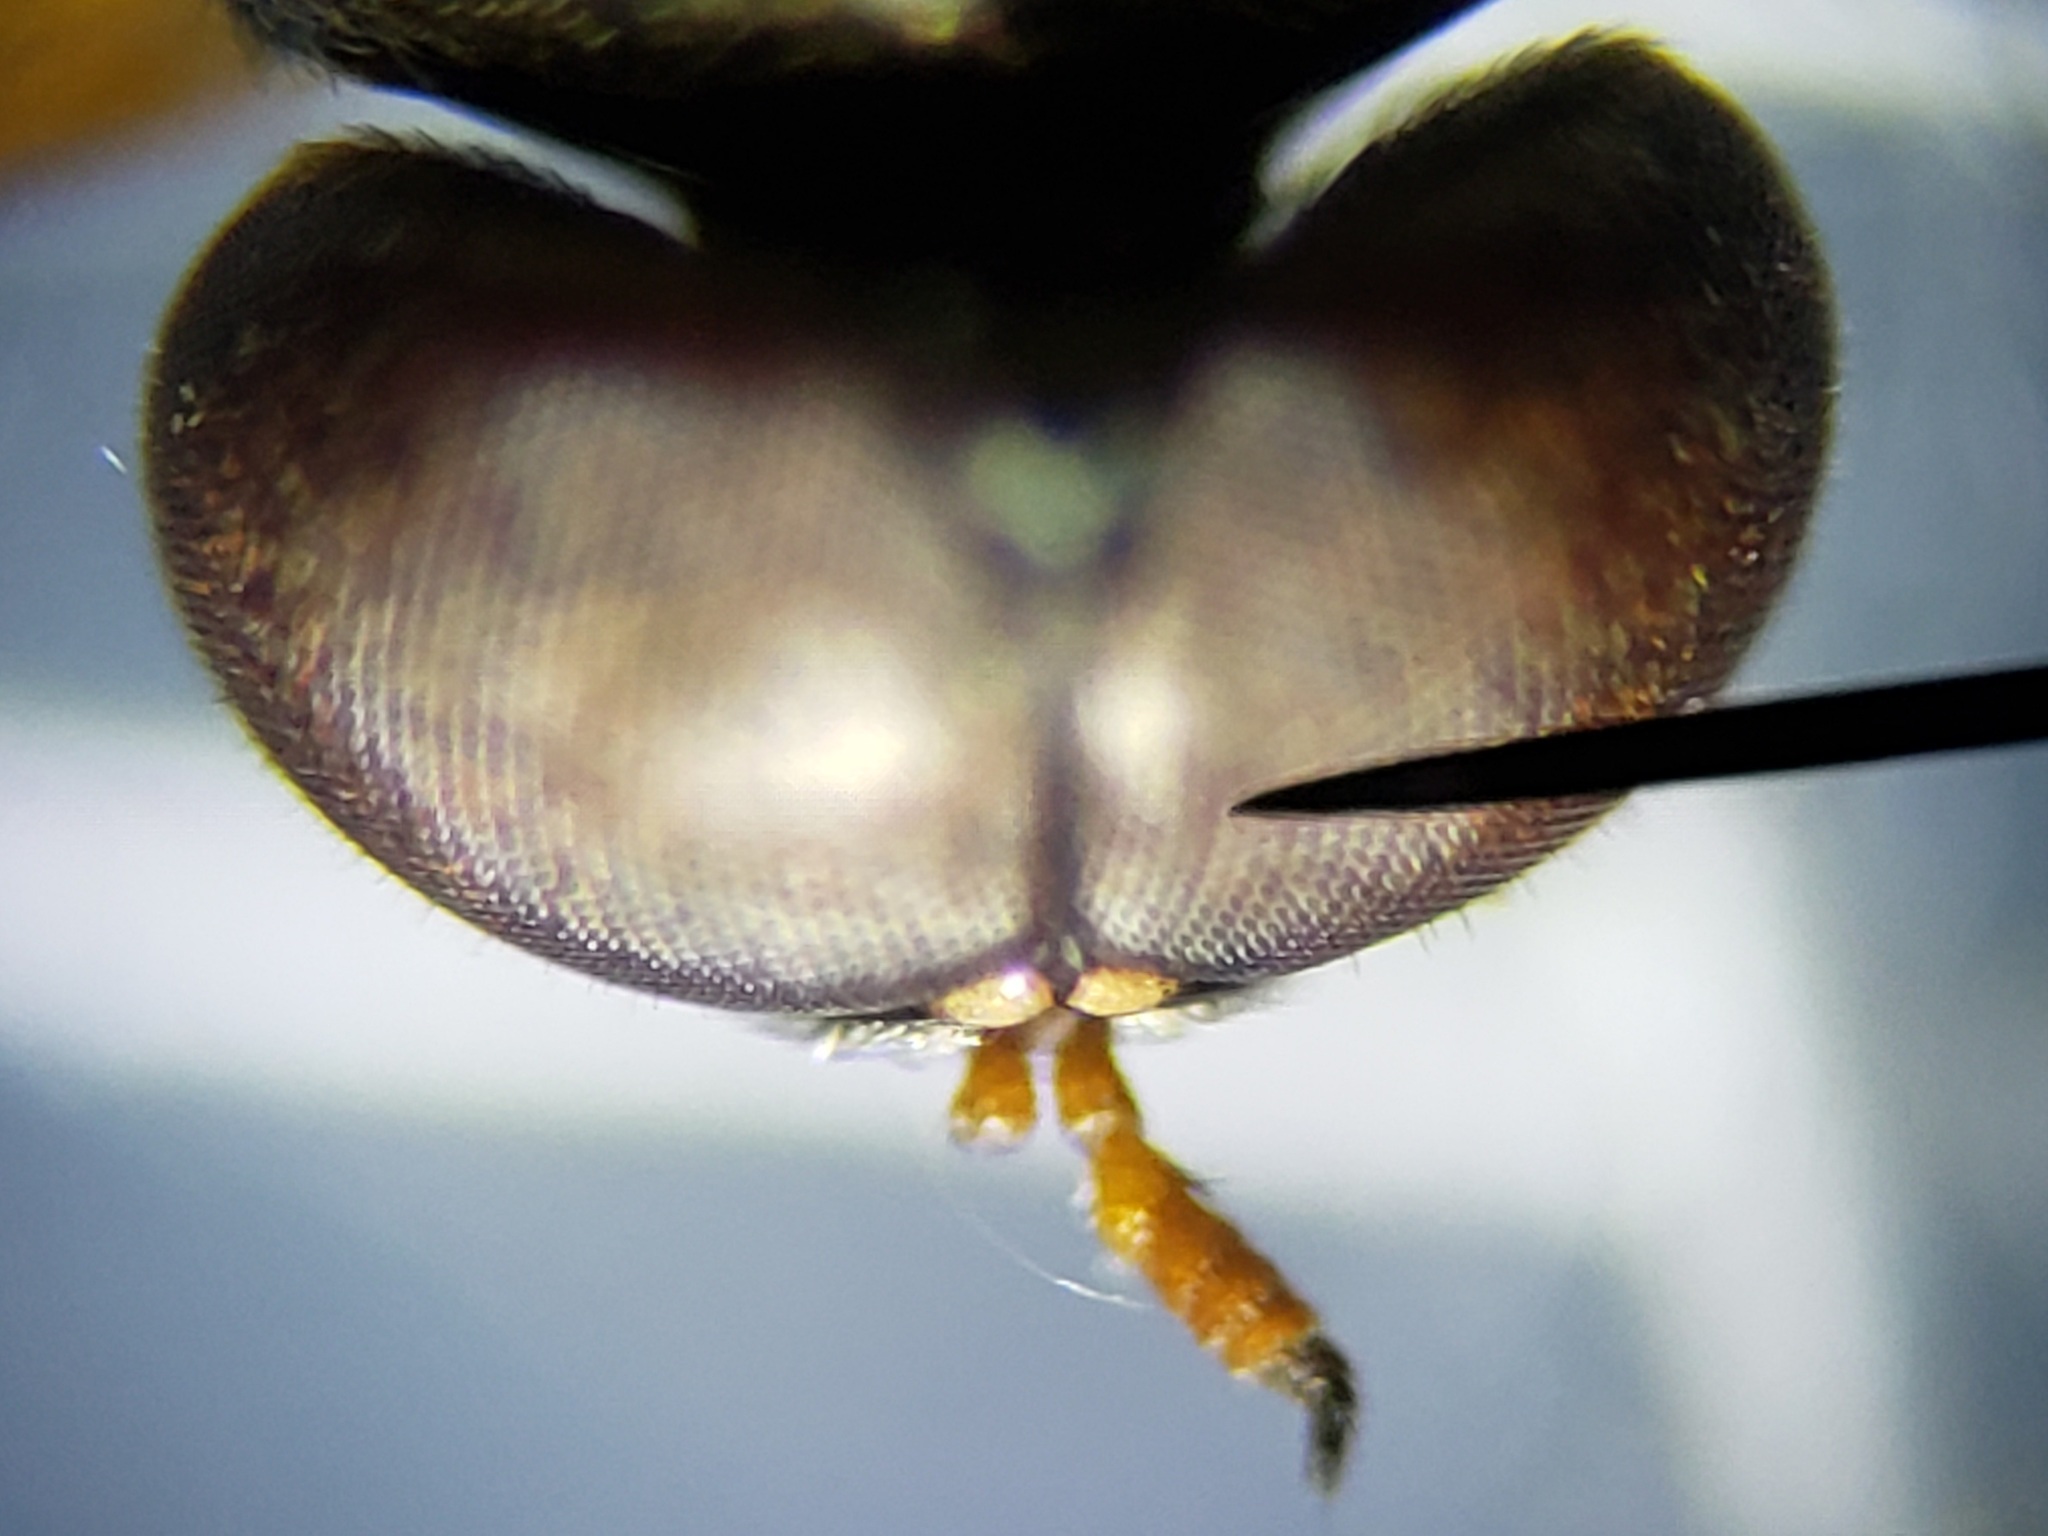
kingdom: Animalia
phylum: Arthropoda
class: Insecta
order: Diptera
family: Stratiomyidae
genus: Brachycara
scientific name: Brachycara slossonae
